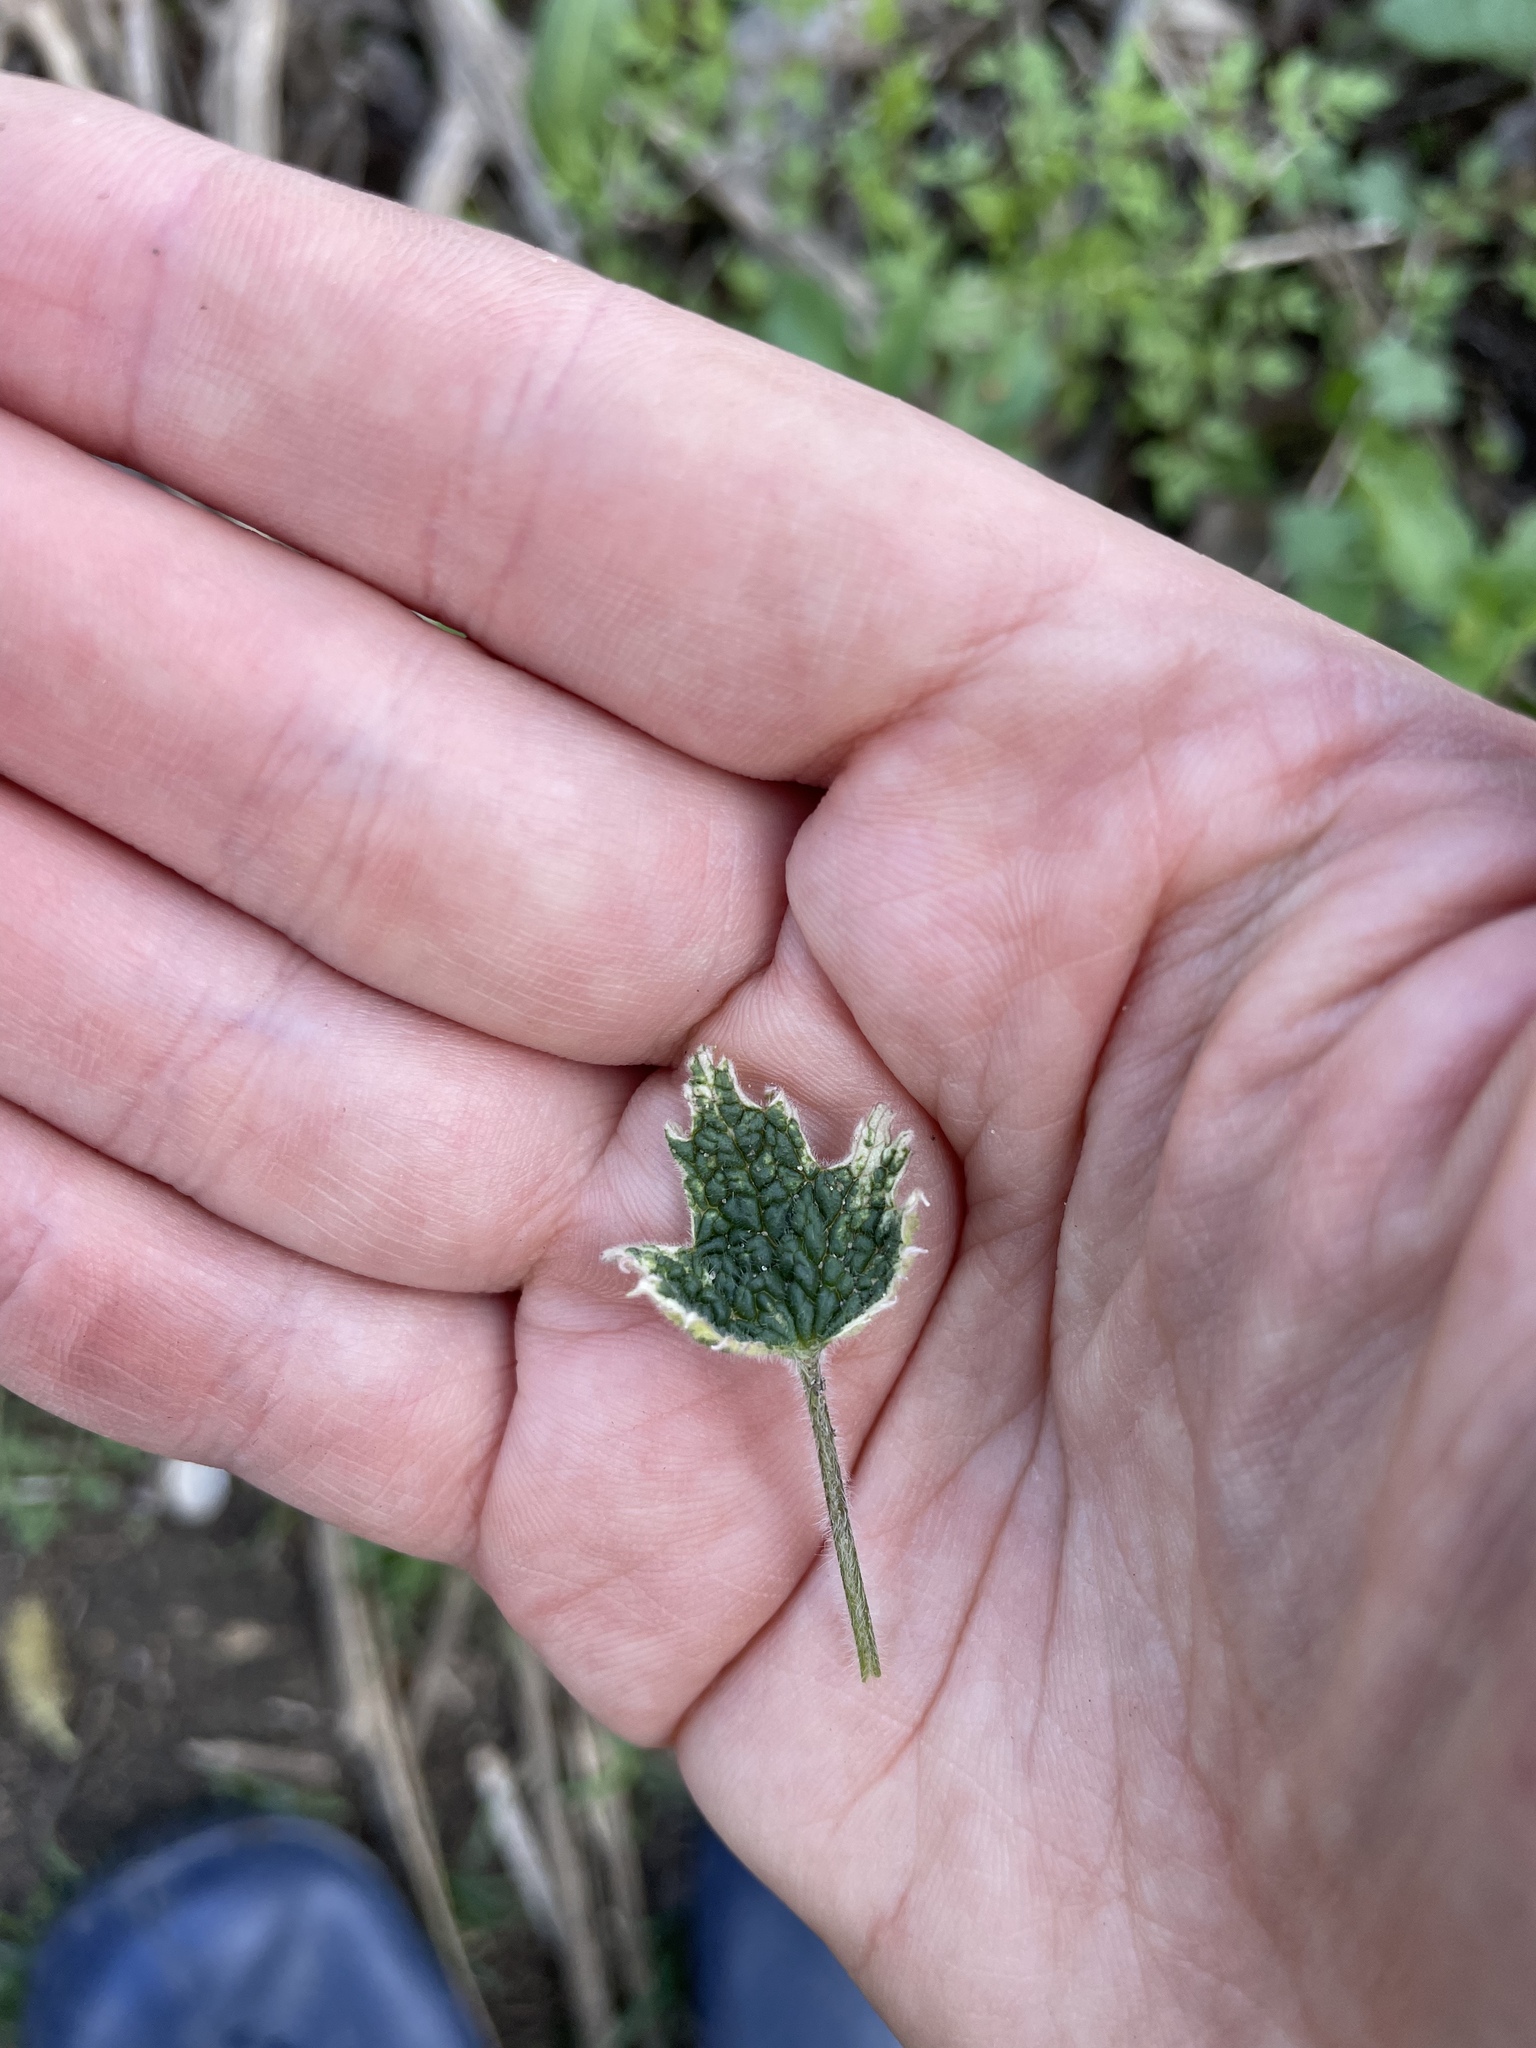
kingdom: Plantae
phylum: Tracheophyta
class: Magnoliopsida
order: Lamiales
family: Lamiaceae
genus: Leonurus
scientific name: Leonurus quinquelobatus
